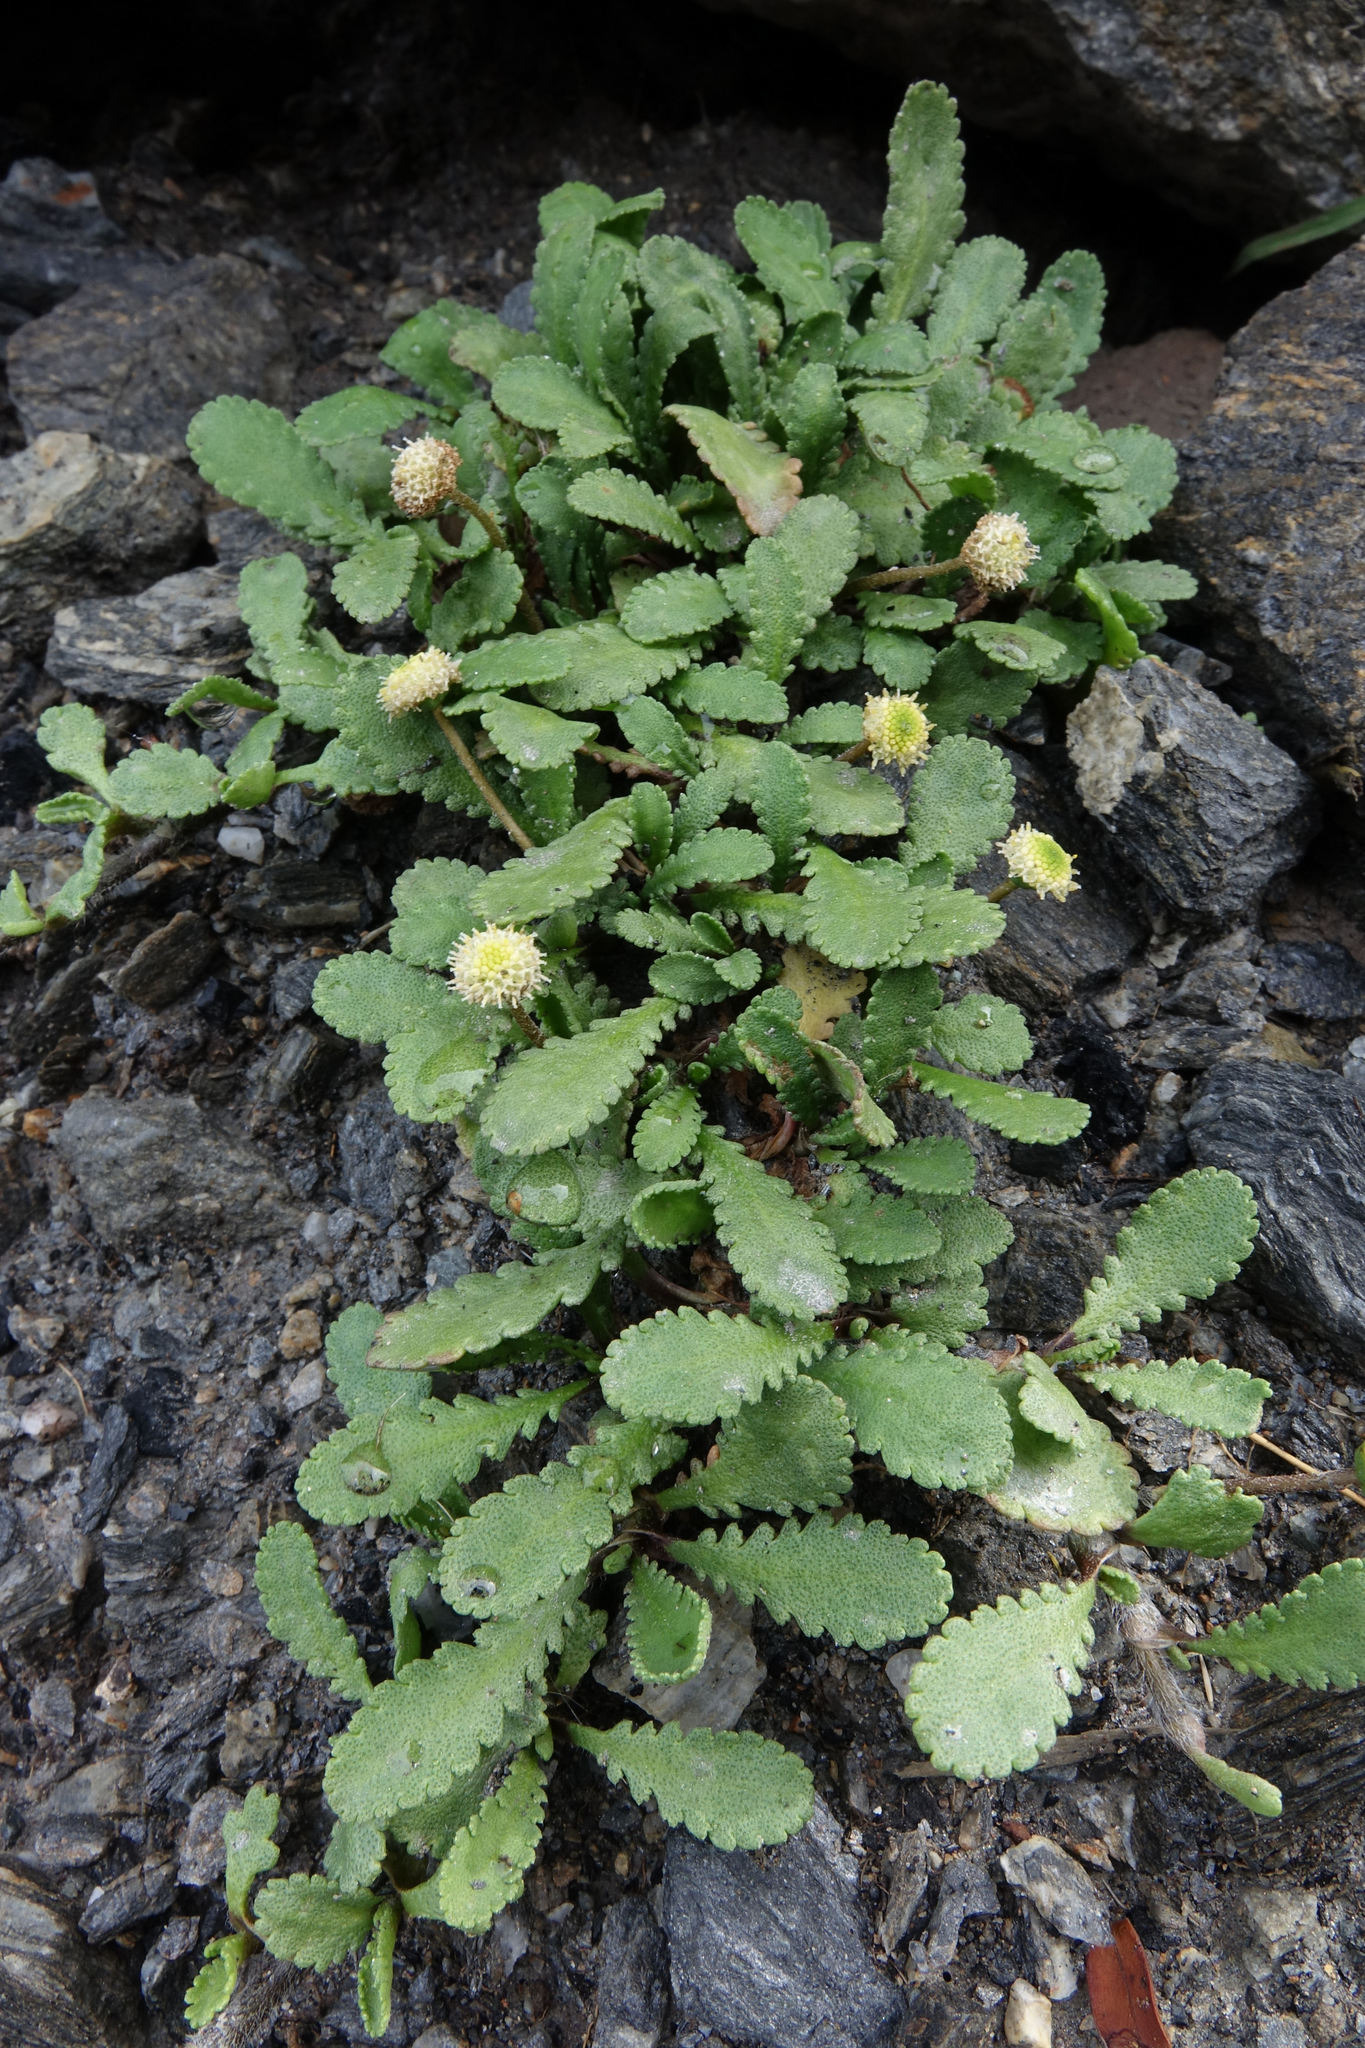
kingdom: Plantae
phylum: Tracheophyta
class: Magnoliopsida
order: Asterales
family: Asteraceae
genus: Leptinella
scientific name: Leptinella dioica
